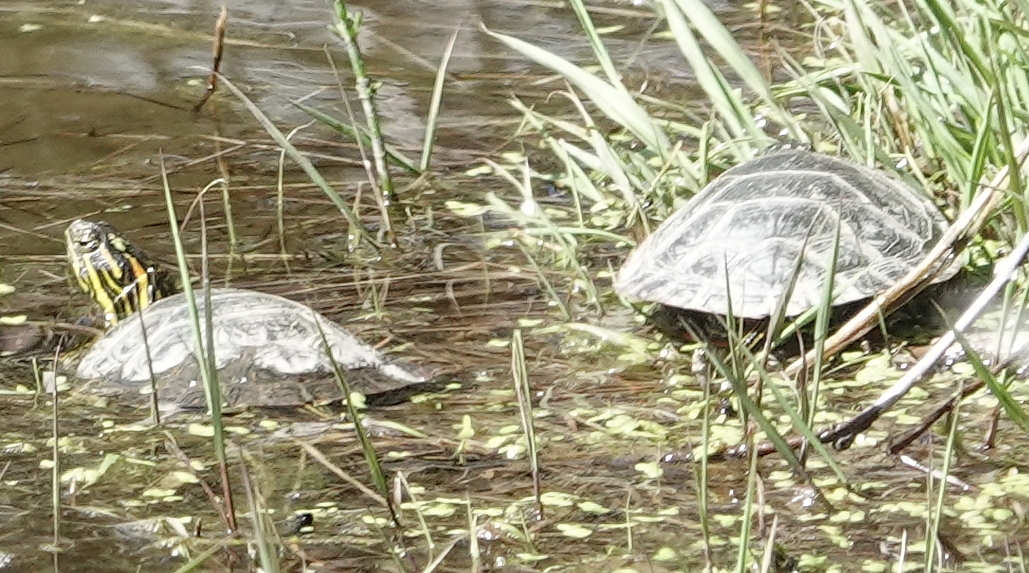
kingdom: Animalia
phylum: Chordata
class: Testudines
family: Emydidae
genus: Chrysemys
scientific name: Chrysemys picta
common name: Painted turtle
